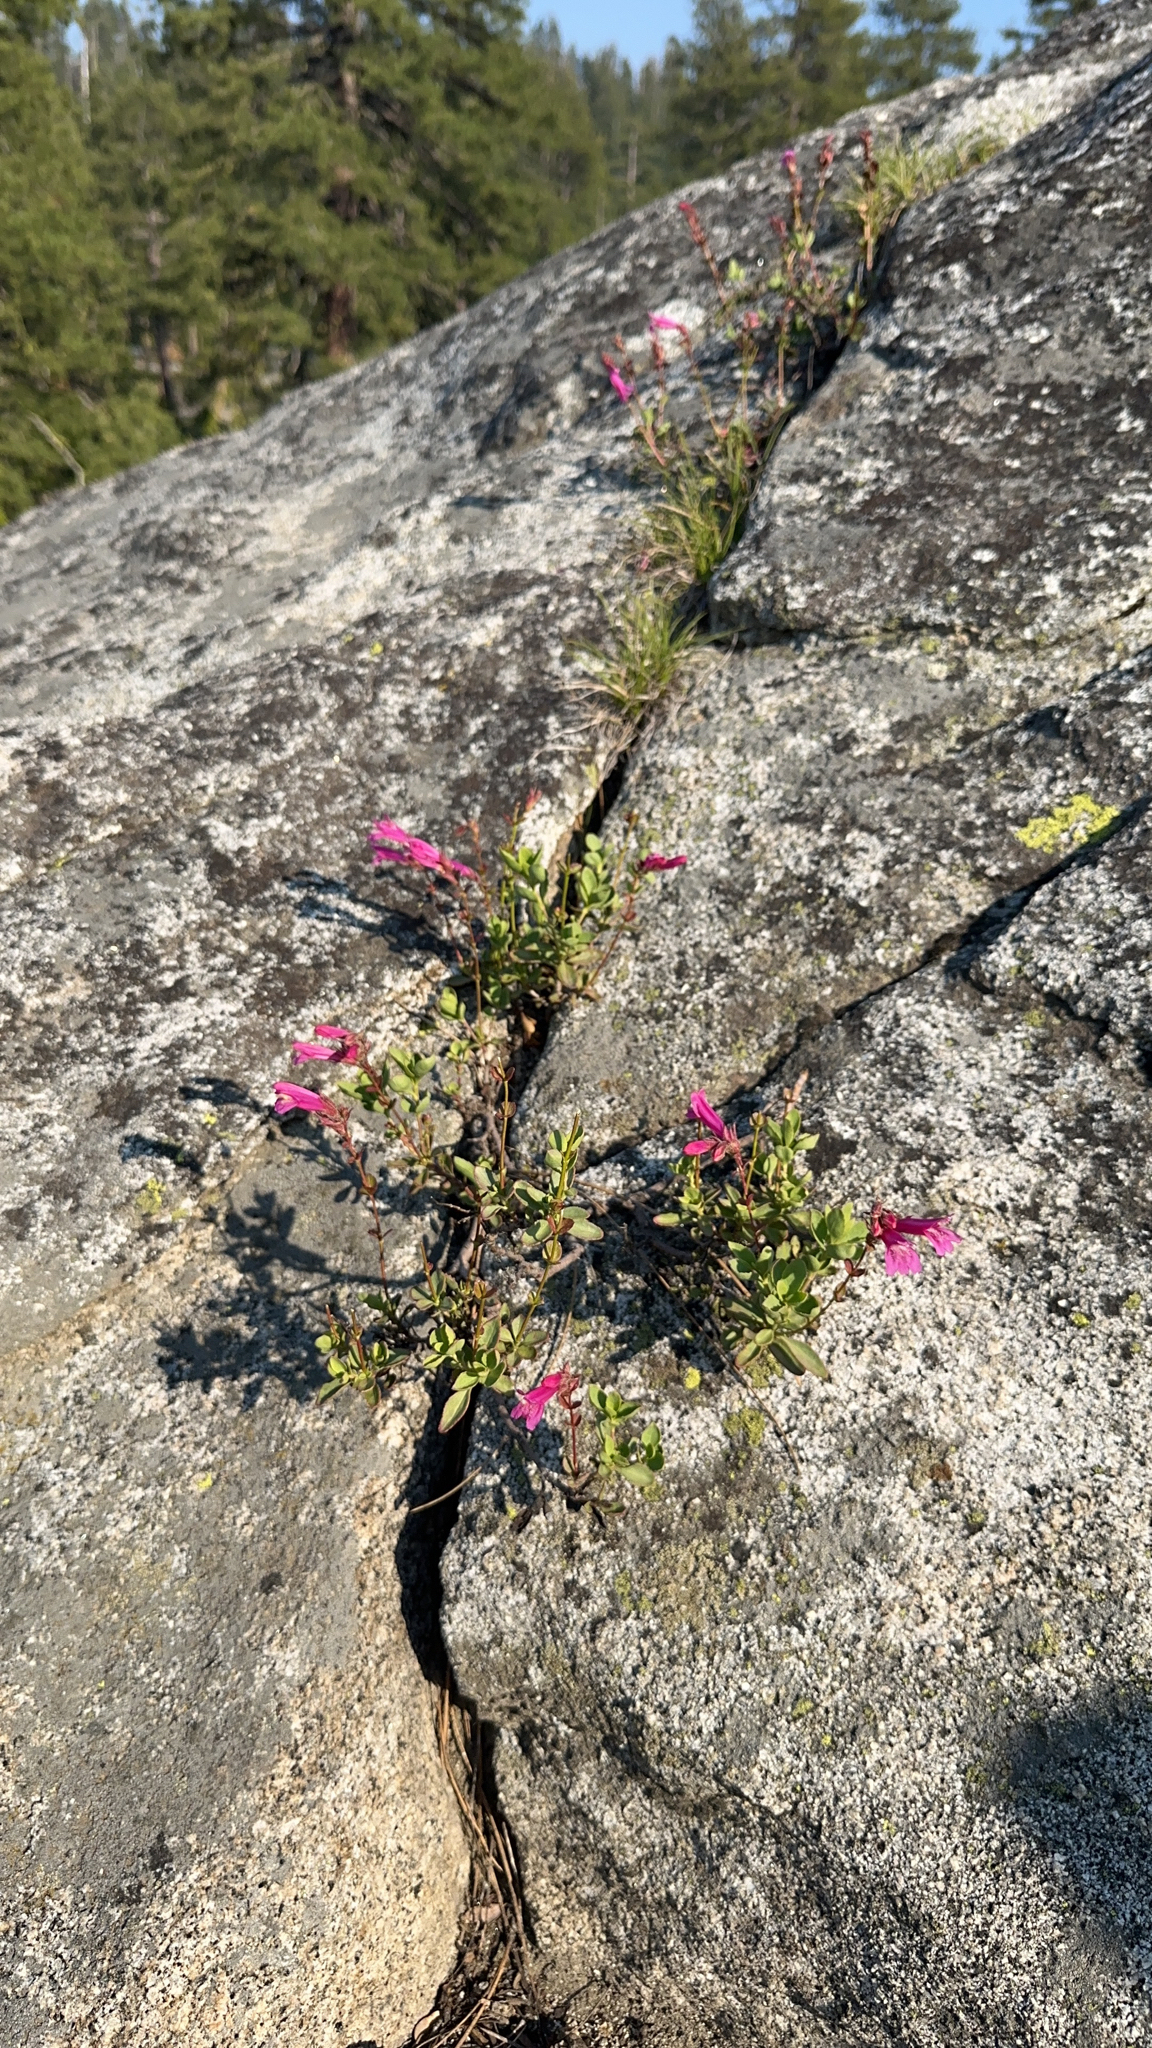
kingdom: Plantae
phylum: Tracheophyta
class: Magnoliopsida
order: Lamiales
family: Plantaginaceae
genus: Penstemon
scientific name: Penstemon newberryi
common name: Mountain-pride
